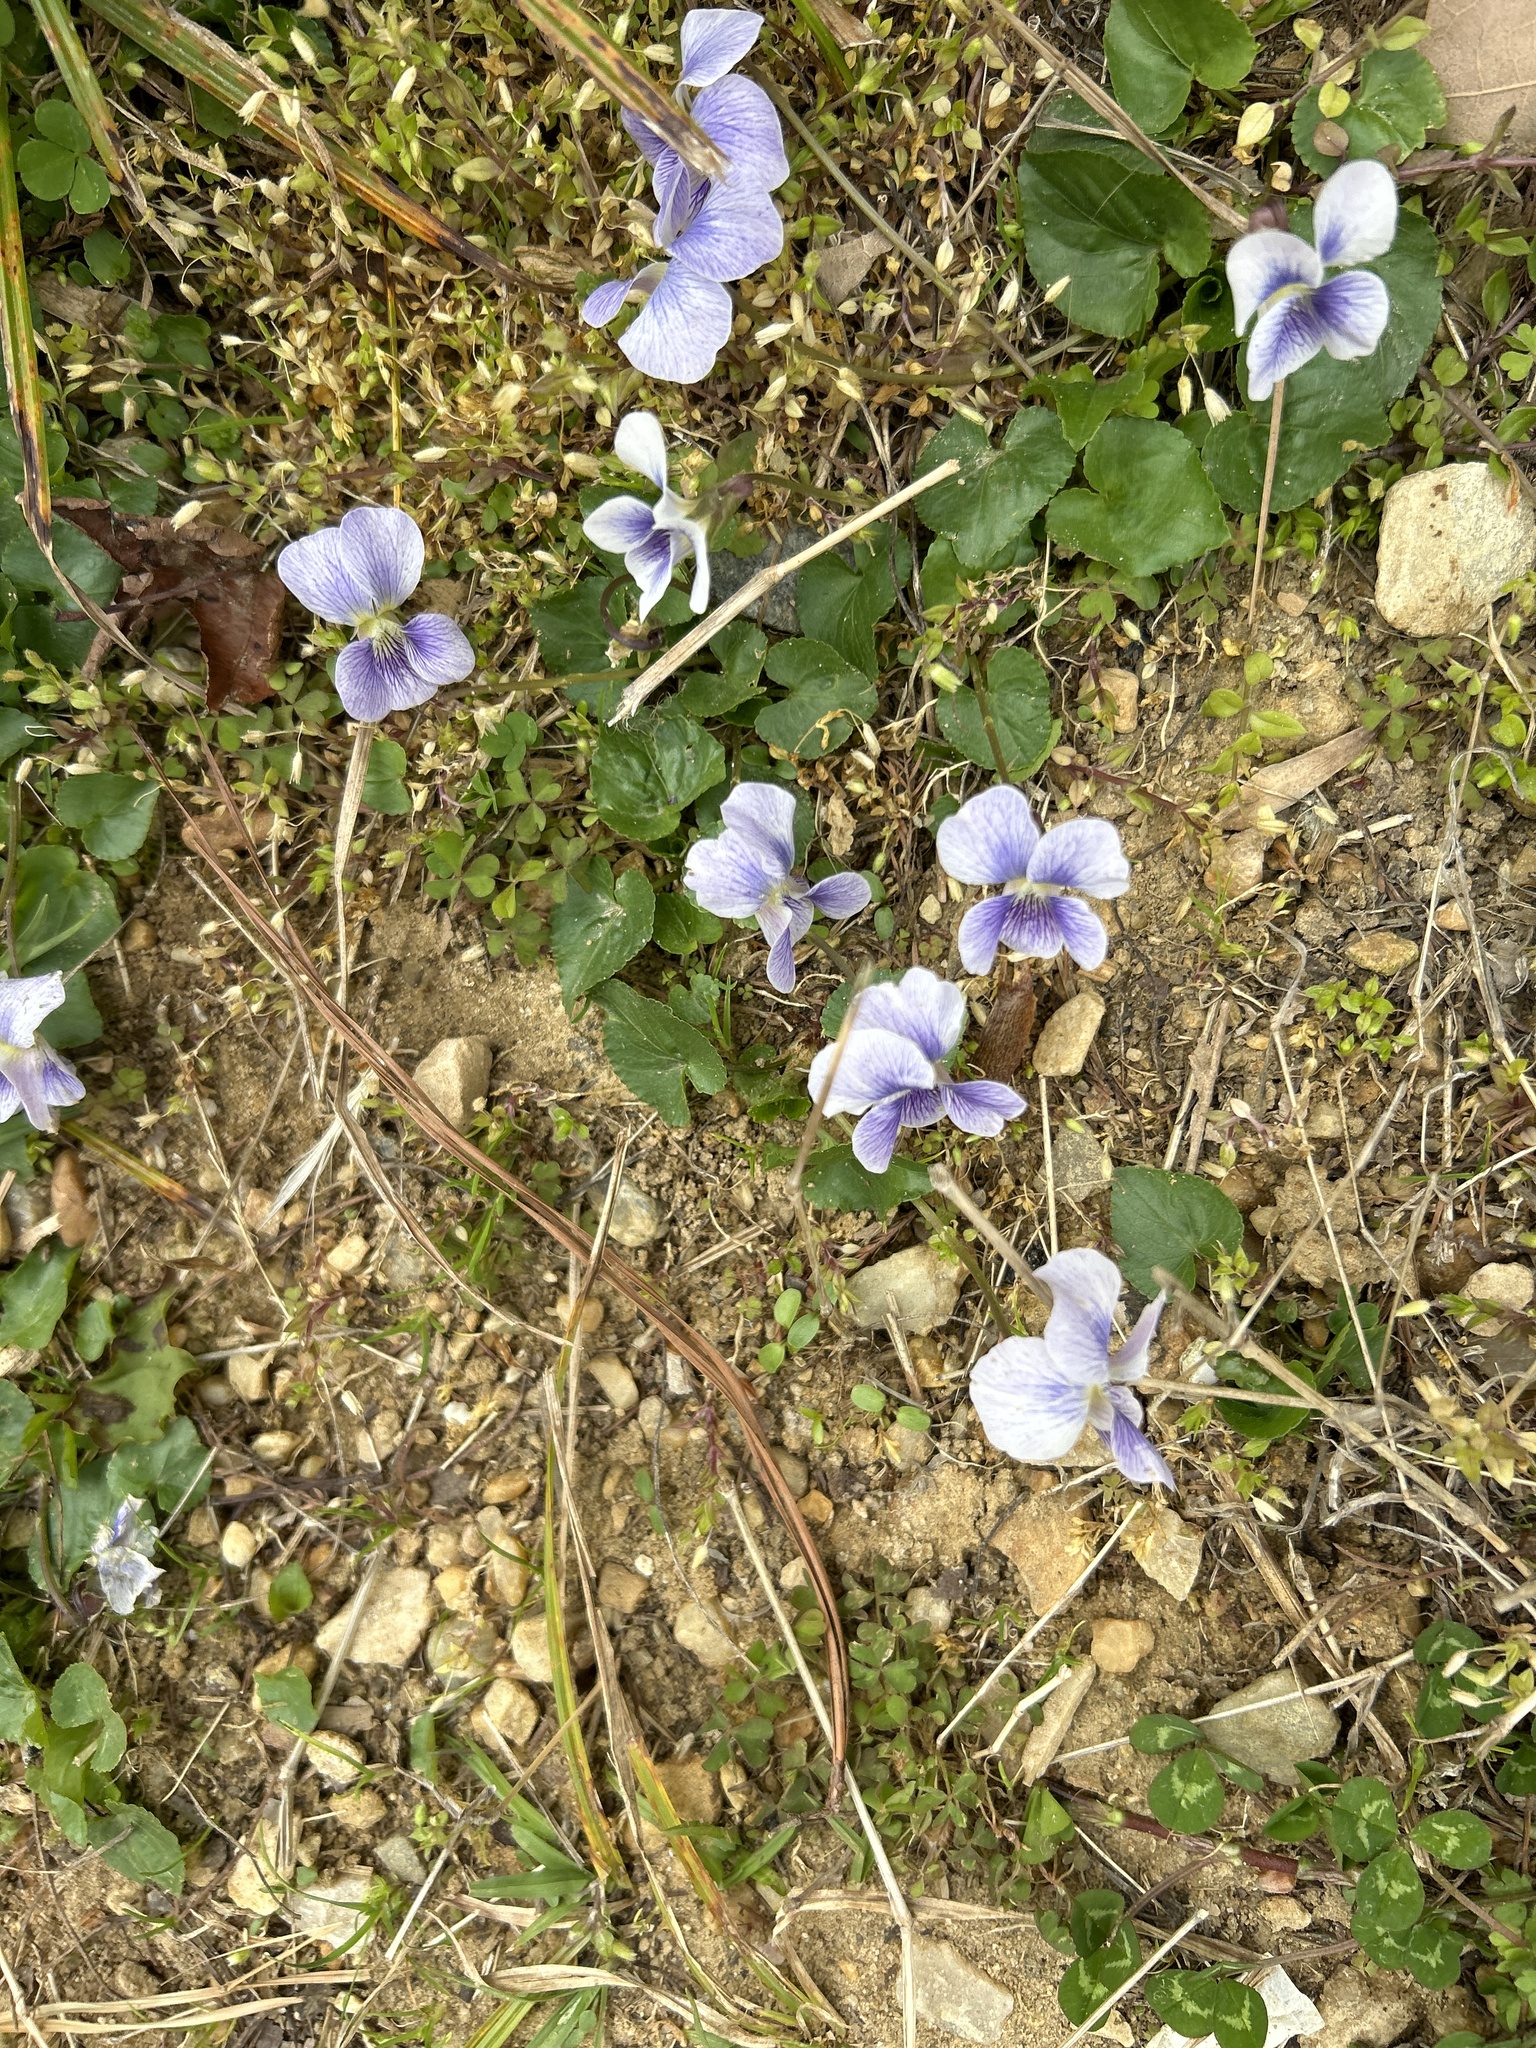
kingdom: Plantae
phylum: Tracheophyta
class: Magnoliopsida
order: Malpighiales
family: Violaceae
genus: Viola
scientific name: Viola sororia
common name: Dooryard violet
